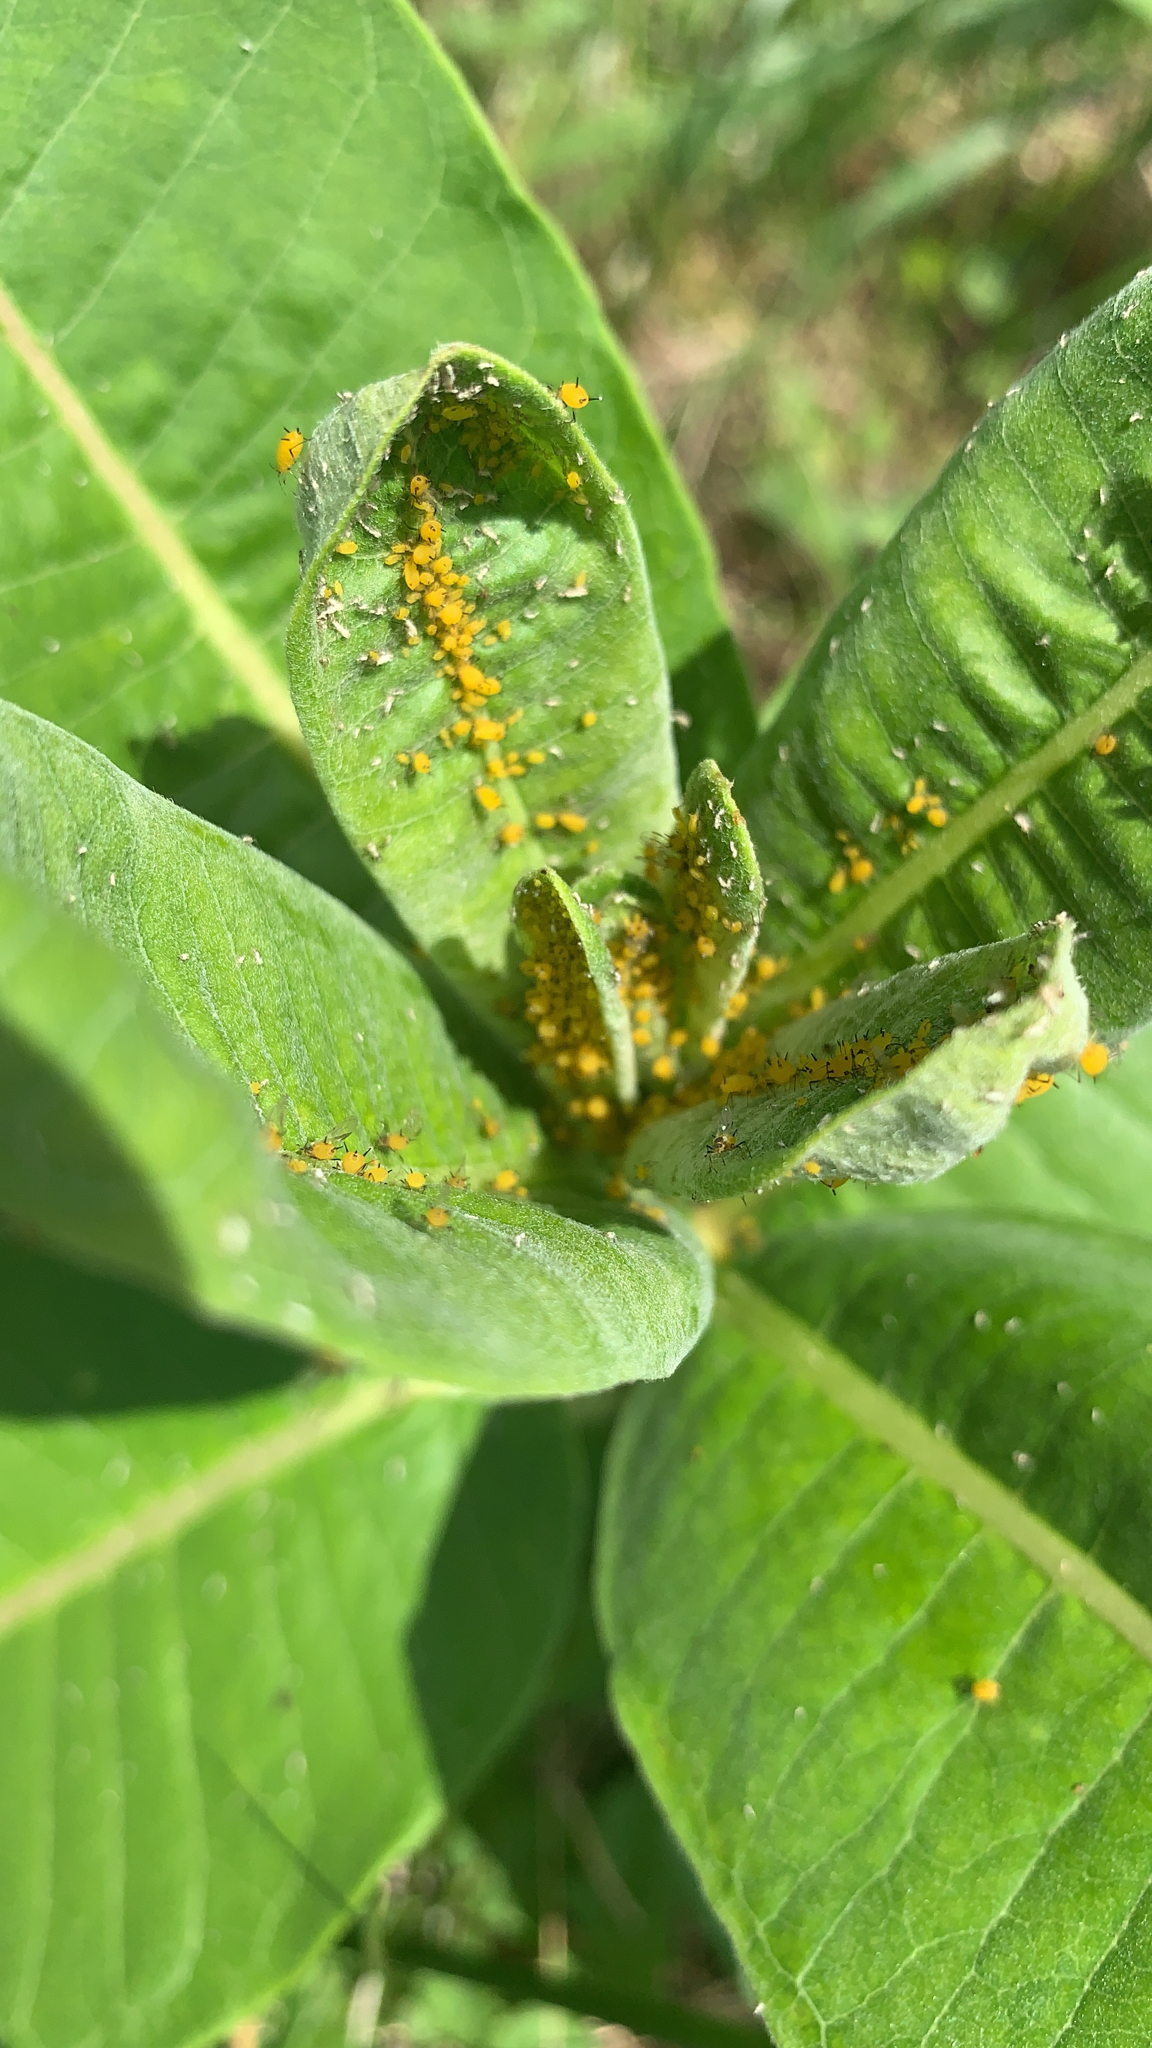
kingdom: Animalia
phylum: Arthropoda
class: Insecta
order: Hemiptera
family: Aphididae
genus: Aphis
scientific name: Aphis nerii
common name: Oleander aphid
